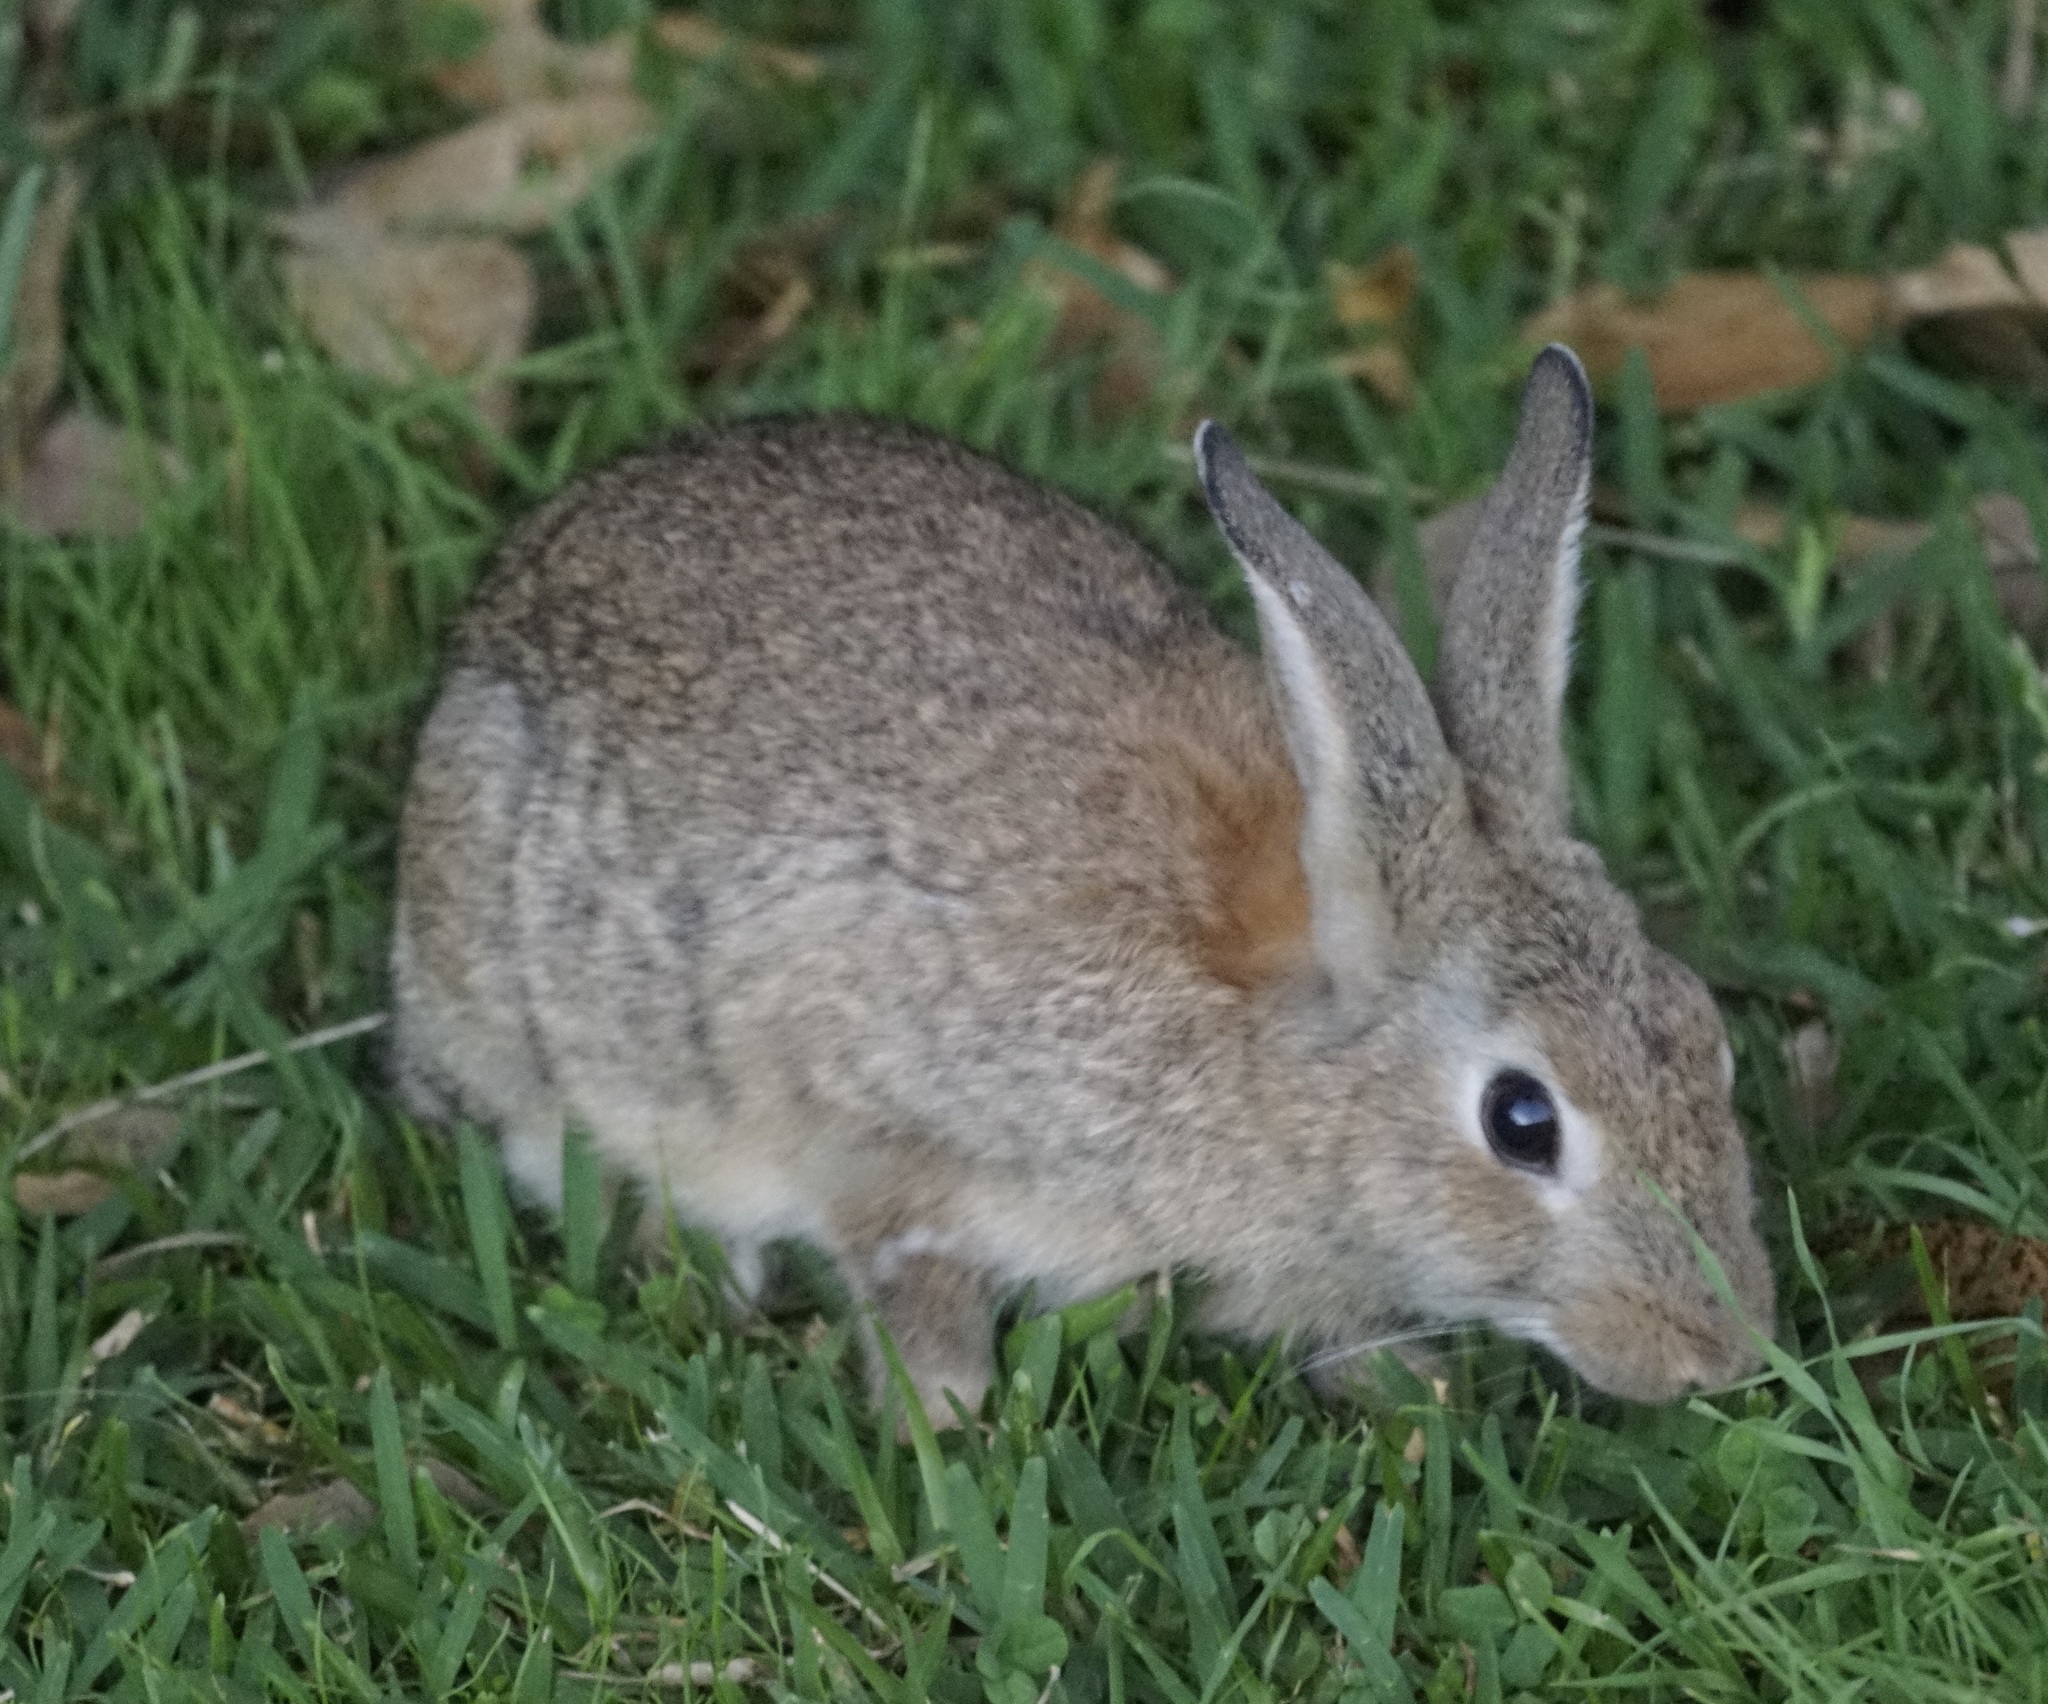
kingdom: Animalia
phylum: Chordata
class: Mammalia
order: Lagomorpha
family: Leporidae
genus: Oryctolagus
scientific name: Oryctolagus cuniculus
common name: European rabbit
